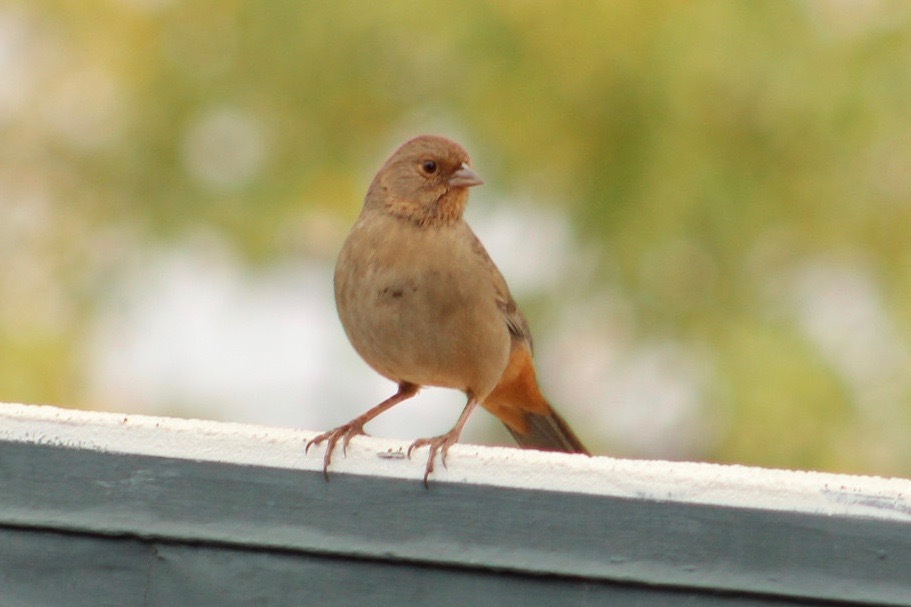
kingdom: Animalia
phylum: Chordata
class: Aves
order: Passeriformes
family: Passerellidae
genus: Melozone
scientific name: Melozone crissalis
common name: California towhee
